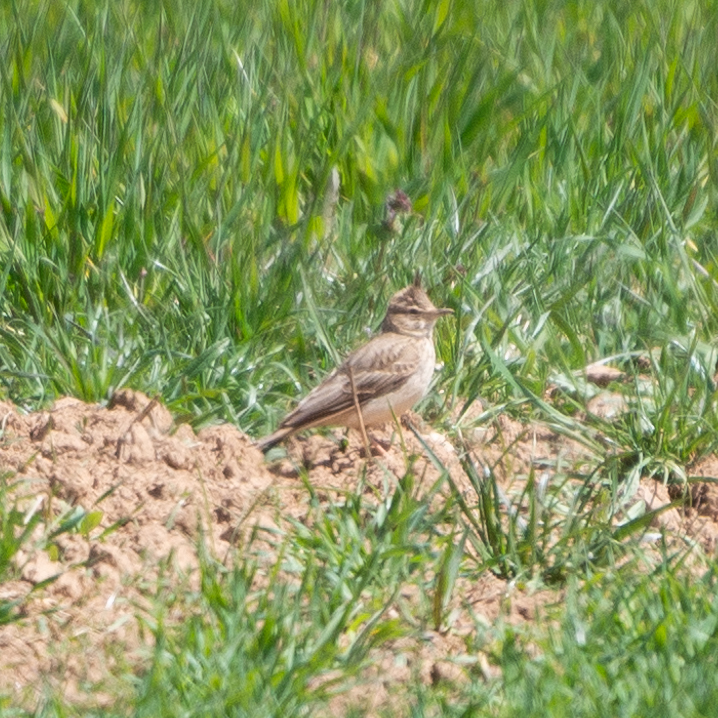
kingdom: Animalia
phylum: Chordata
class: Aves
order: Passeriformes
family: Alaudidae
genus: Galerida
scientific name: Galerida cristata
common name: Crested lark
